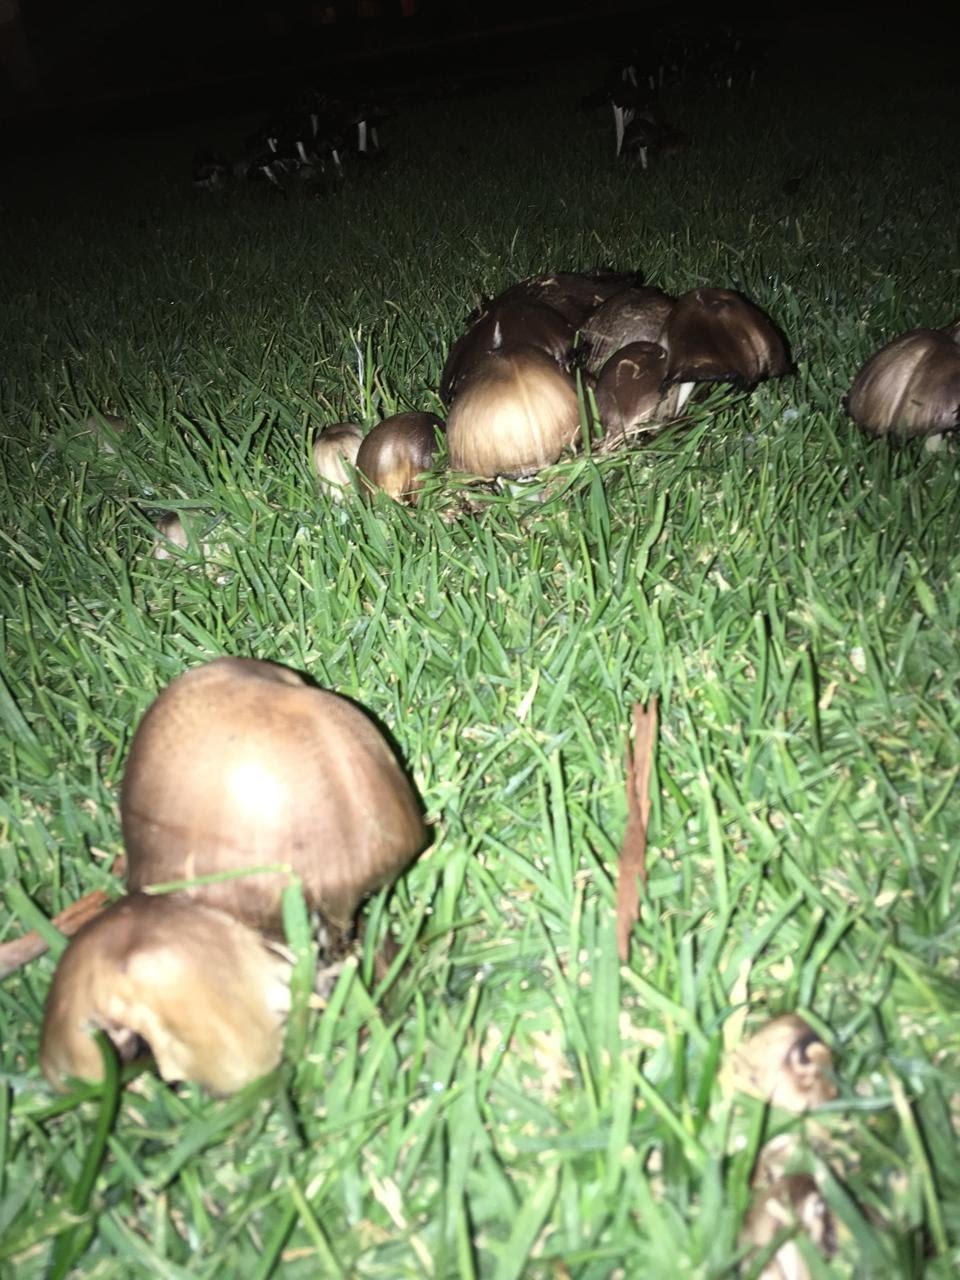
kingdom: Fungi
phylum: Basidiomycota
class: Agaricomycetes
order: Agaricales
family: Psathyrellaceae
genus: Coprinopsis
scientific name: Coprinopsis atramentaria
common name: Common ink-cap
